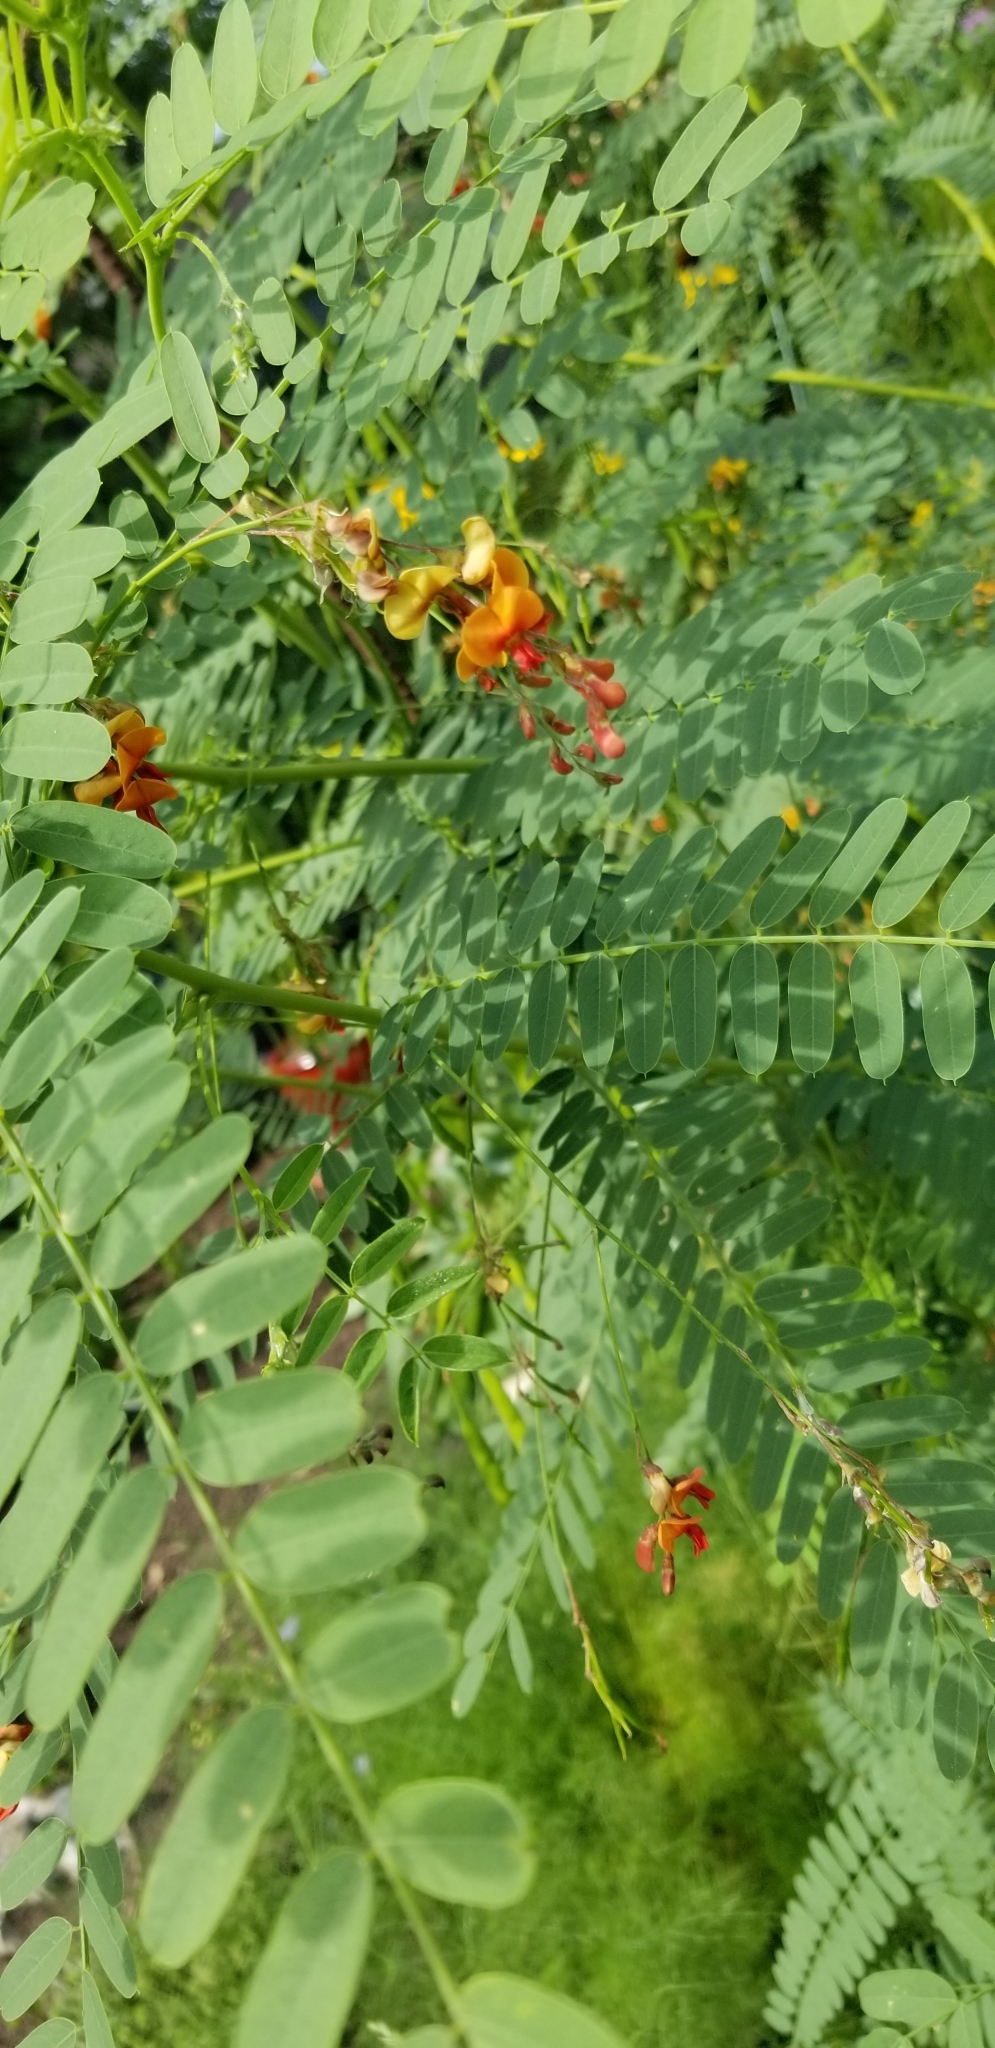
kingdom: Plantae
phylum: Tracheophyta
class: Magnoliopsida
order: Fabales
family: Fabaceae
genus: Sesbania
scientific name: Sesbania vesicaria
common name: Bagpod
